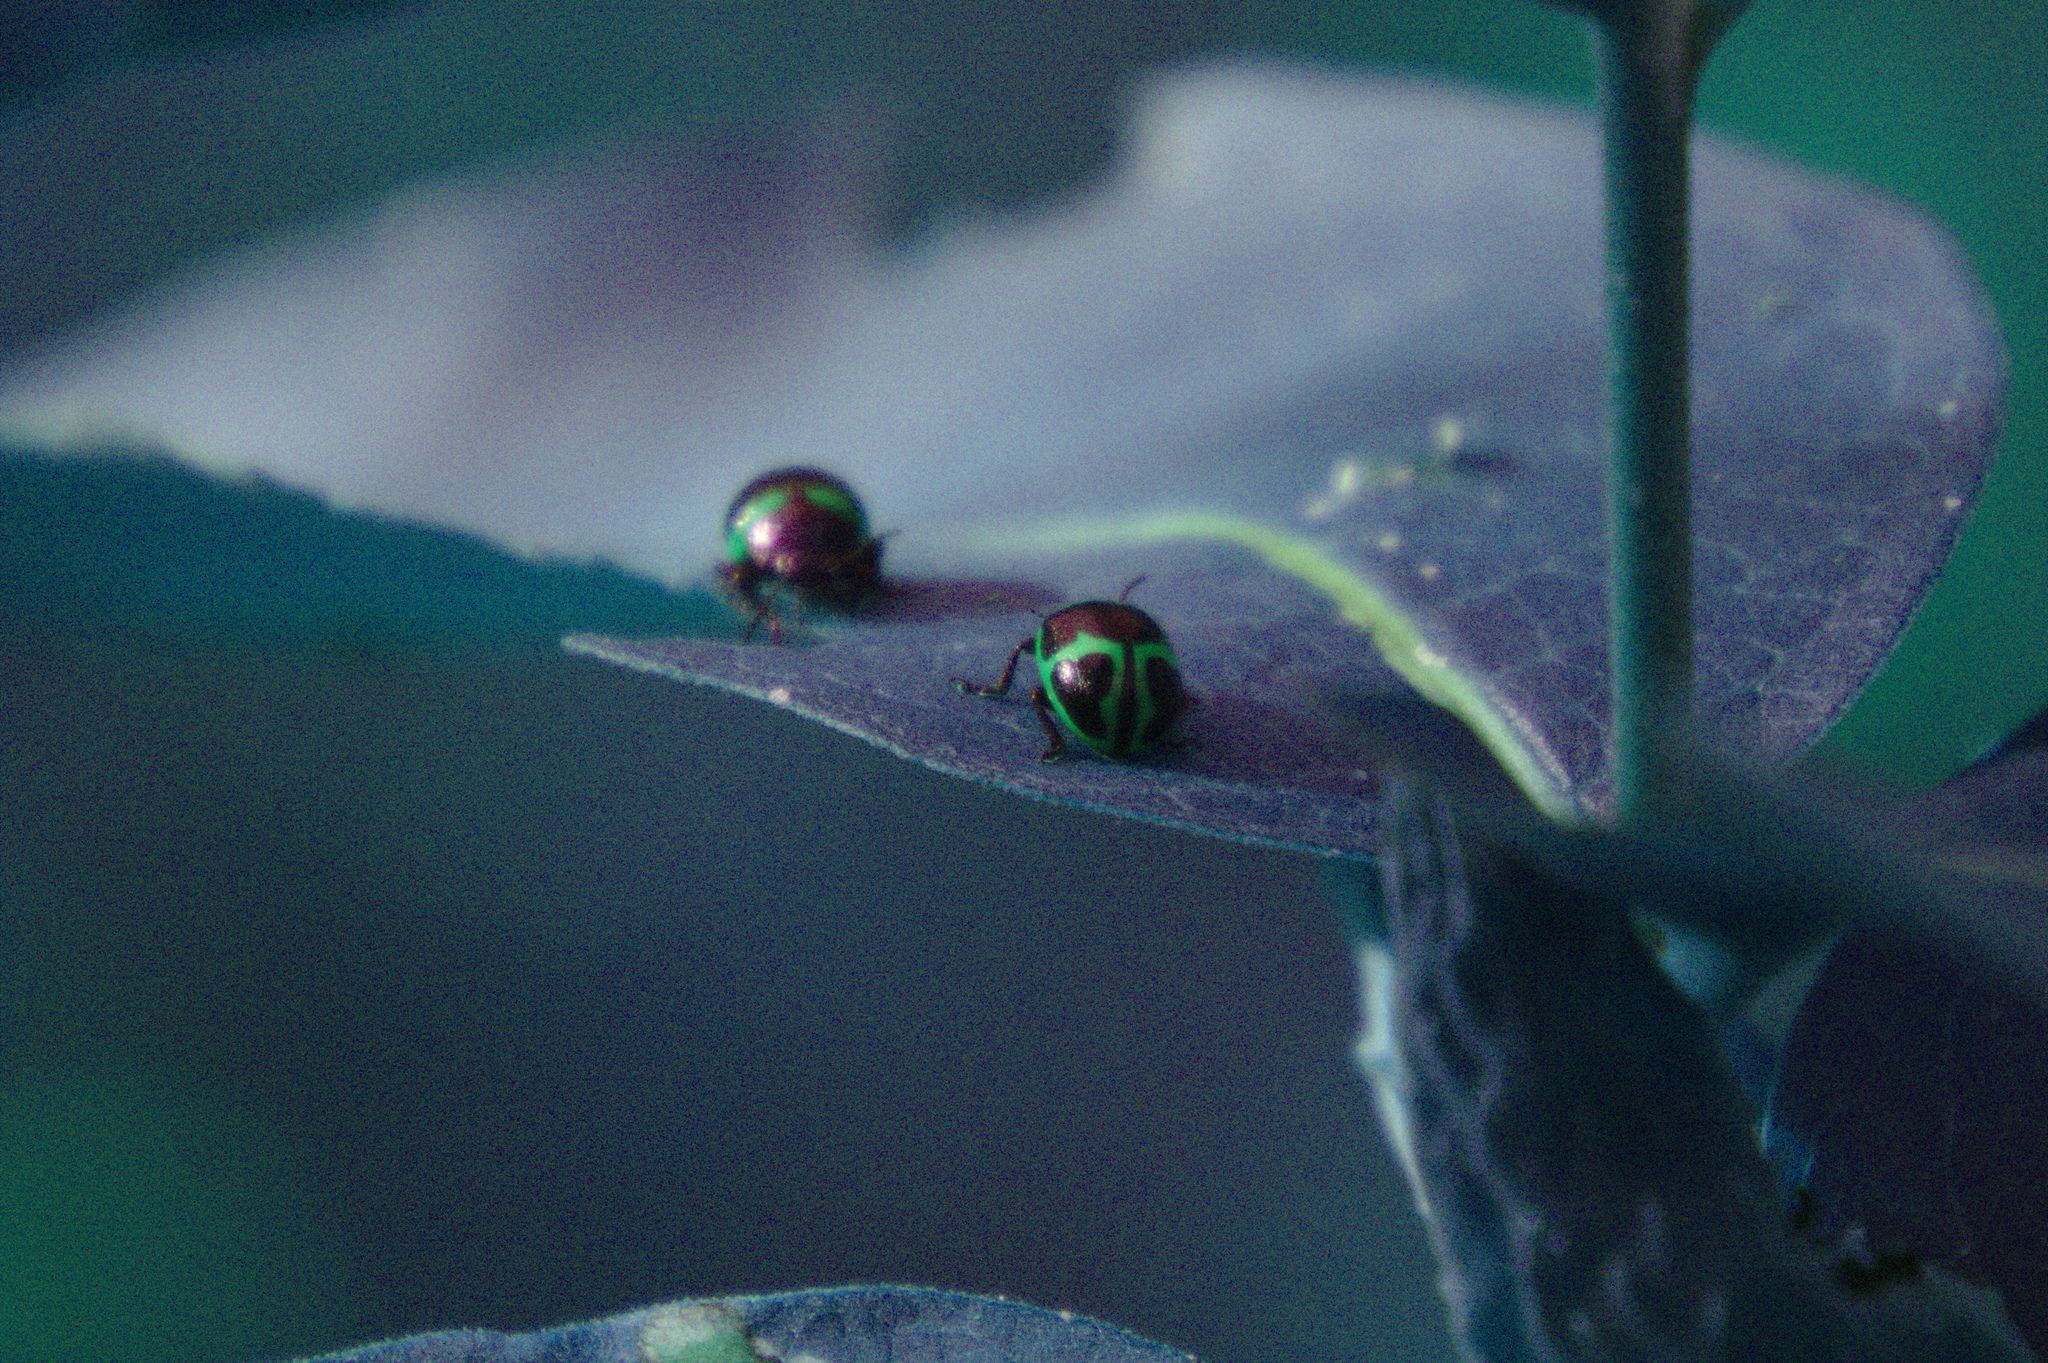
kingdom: Animalia
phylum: Arthropoda
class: Insecta
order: Coleoptera
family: Chrysomelidae
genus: Labidomera
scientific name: Labidomera clivicollis
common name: Swamp milkweed leaf beetle
